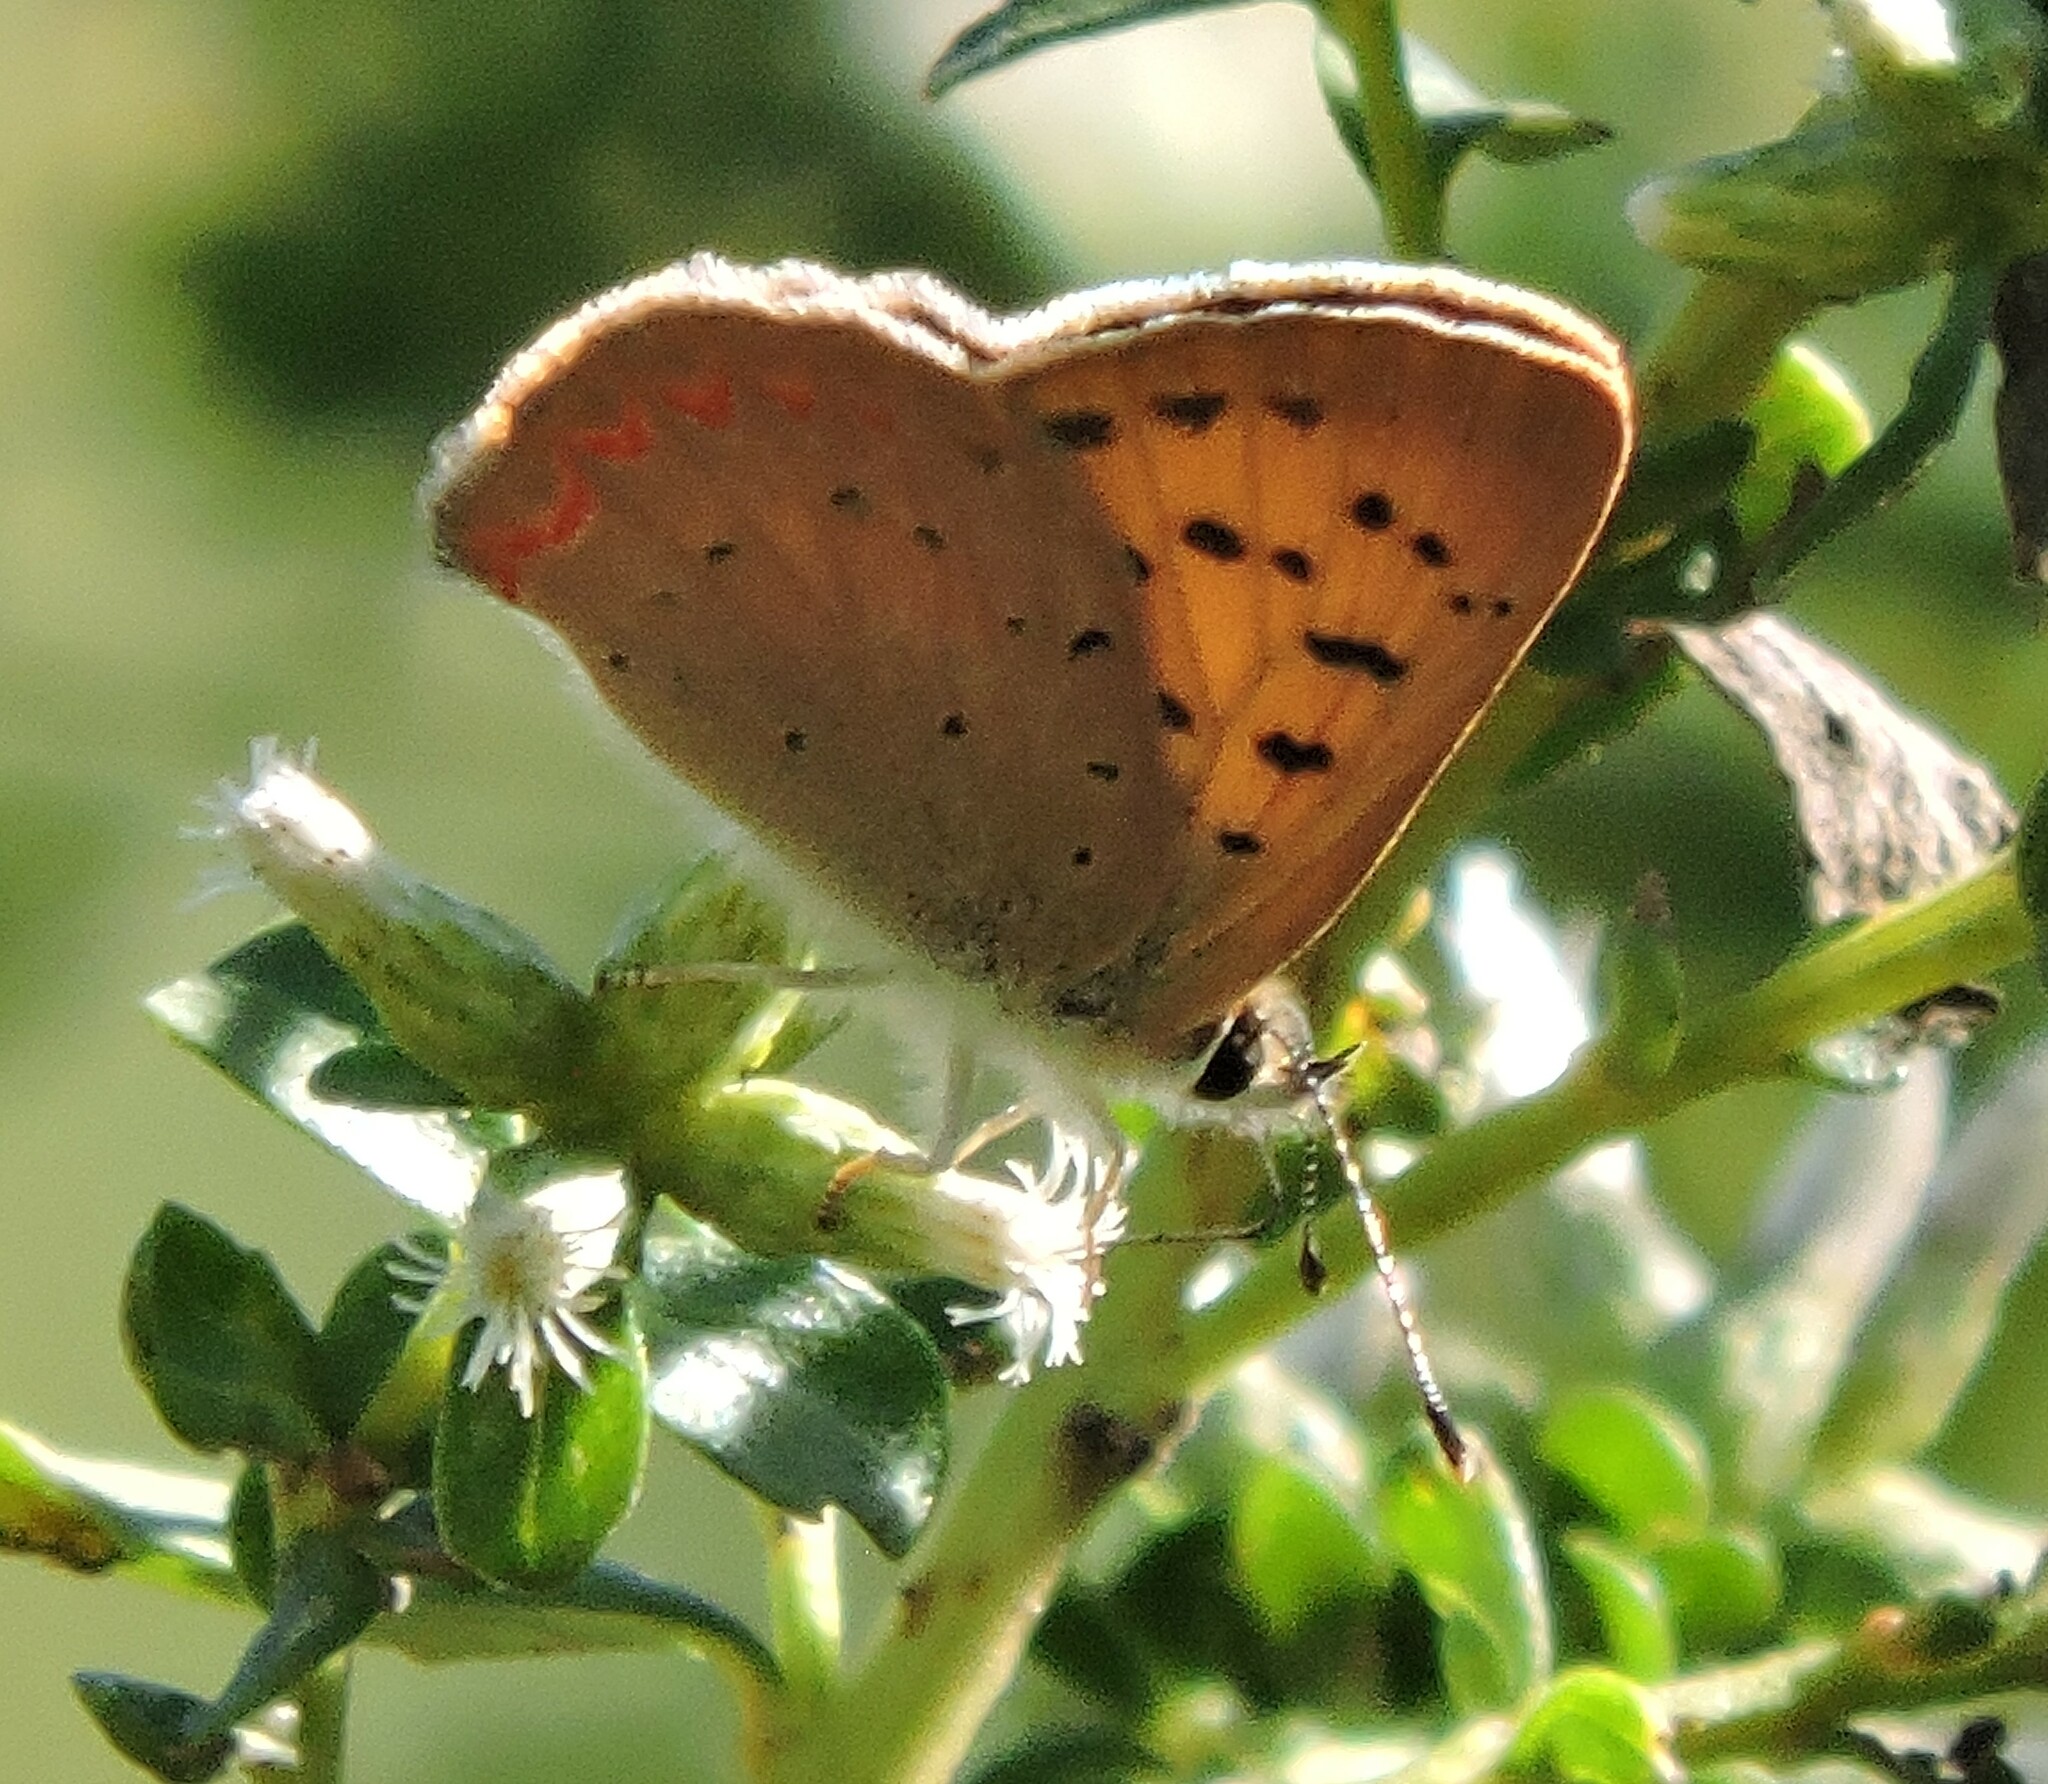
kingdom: Animalia
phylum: Arthropoda
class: Insecta
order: Lepidoptera
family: Lycaenidae
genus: Tharsalea
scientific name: Tharsalea helloides
